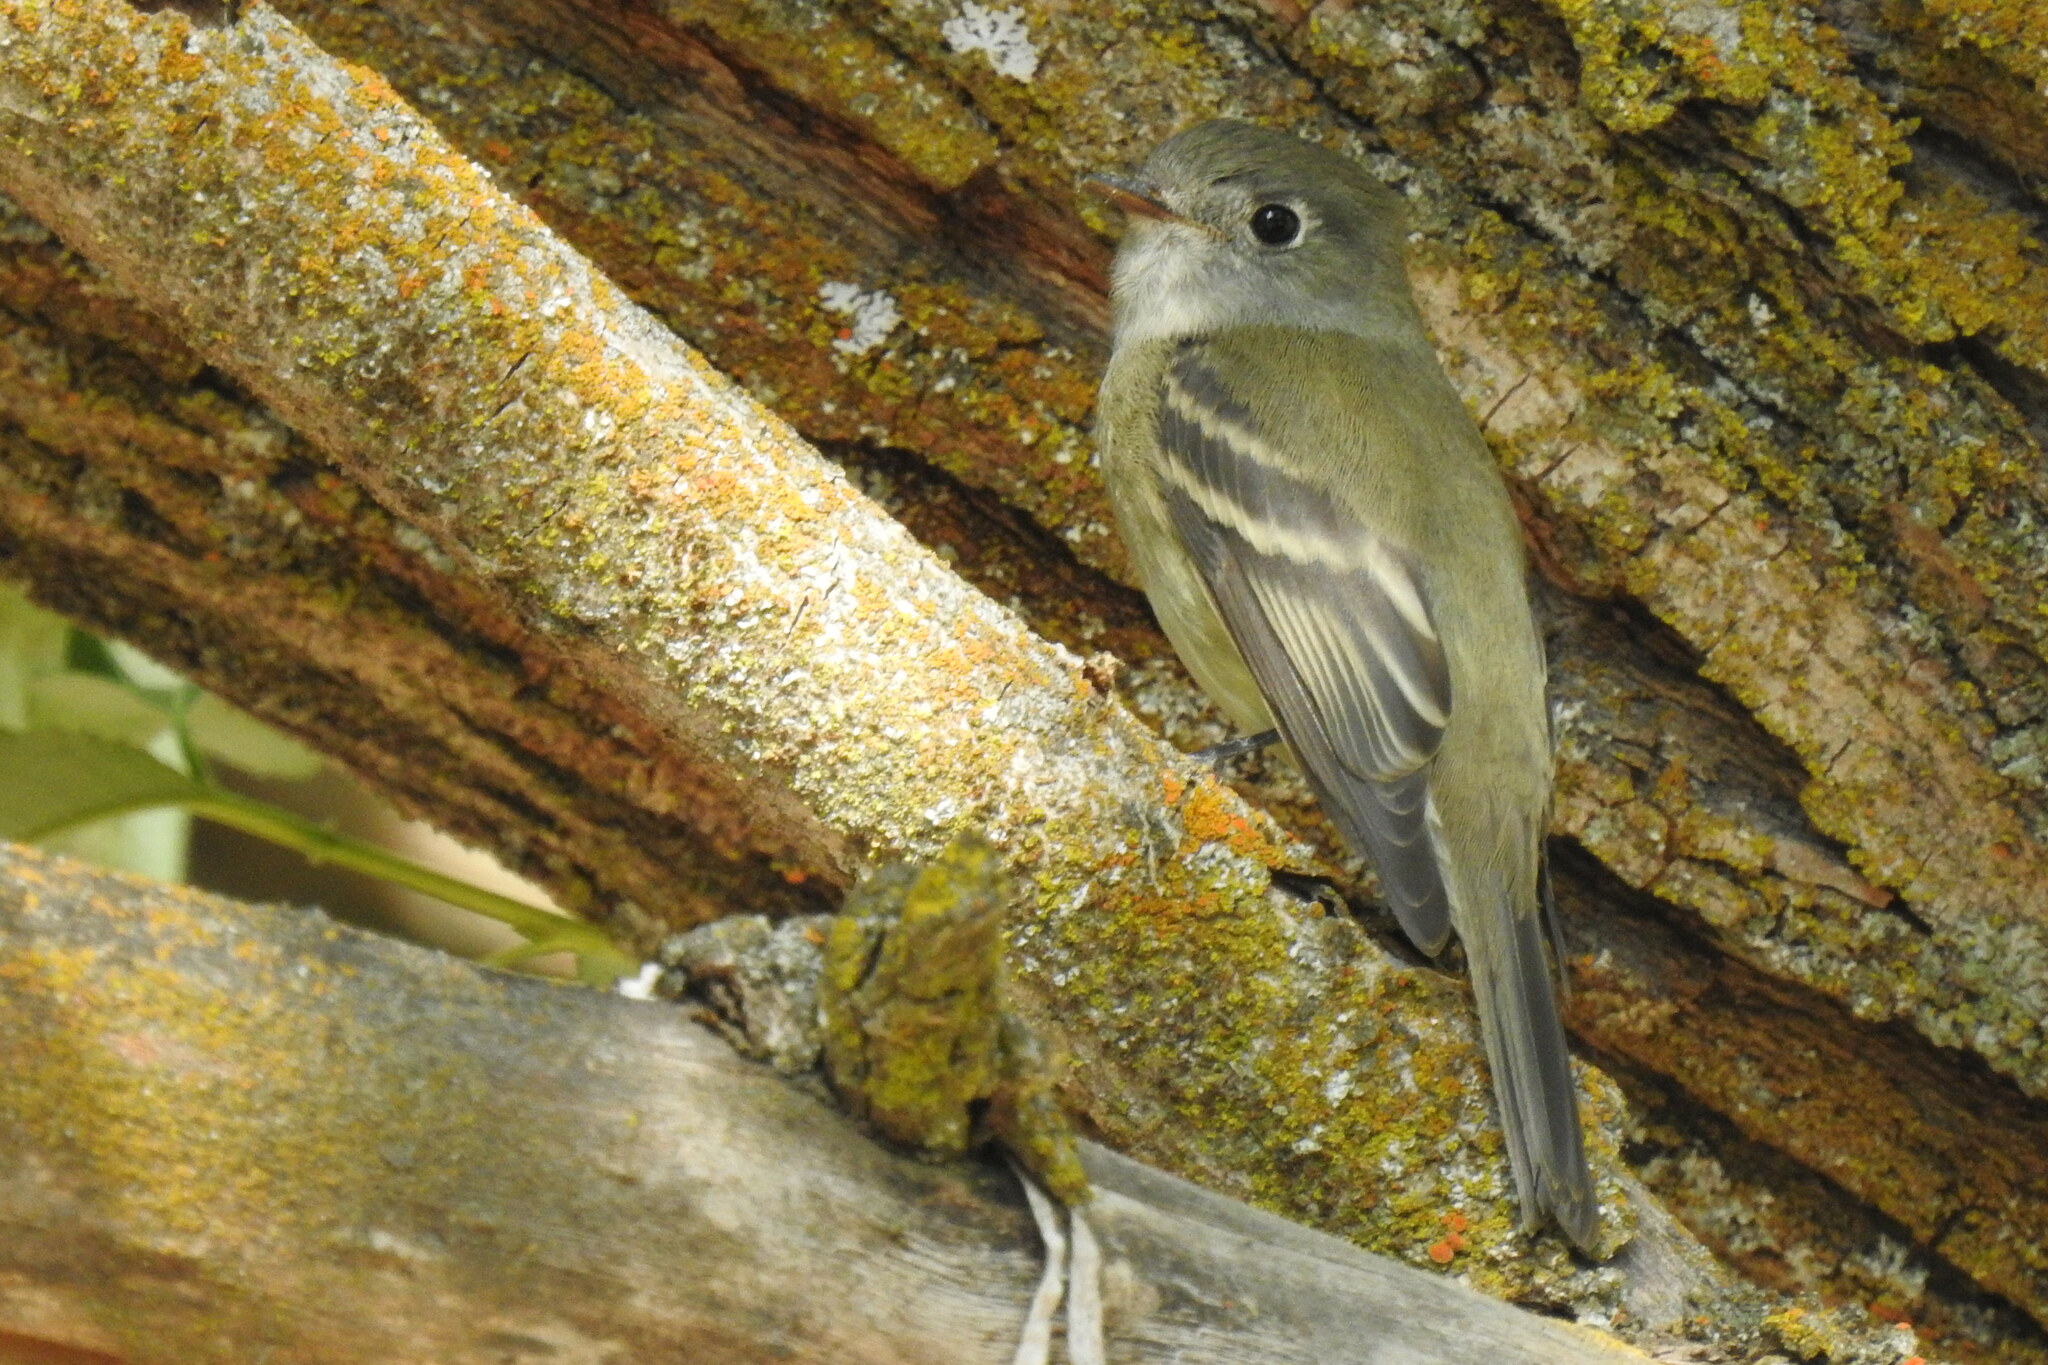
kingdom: Animalia
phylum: Chordata
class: Aves
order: Passeriformes
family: Tyrannidae
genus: Empidonax
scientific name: Empidonax hammondii
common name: Hammond's flycatcher
